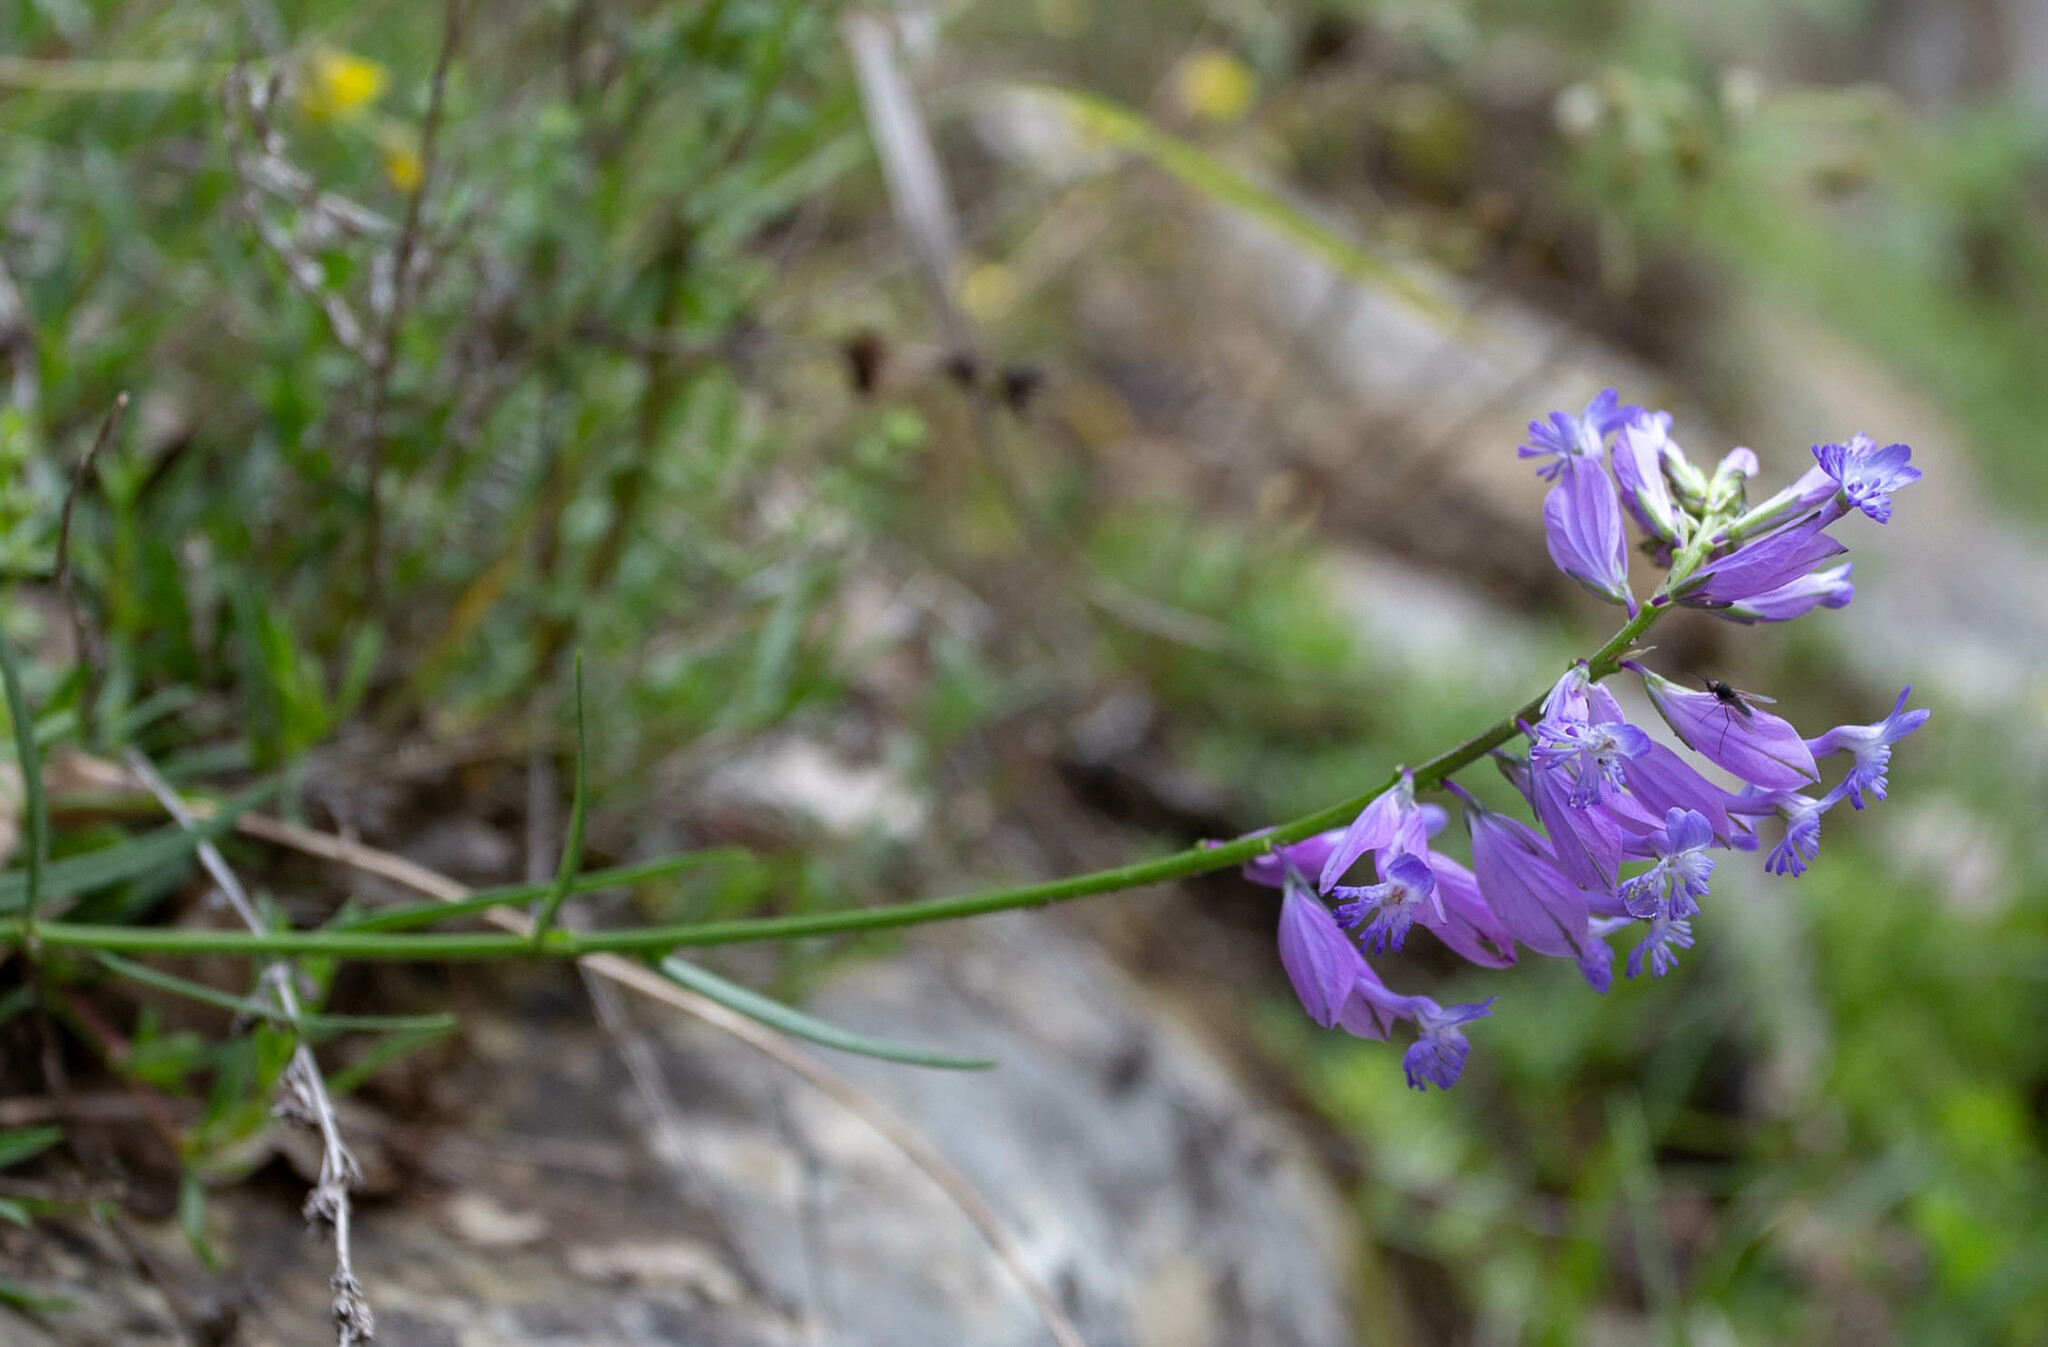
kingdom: Plantae
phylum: Tracheophyta
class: Magnoliopsida
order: Fabales
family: Polygalaceae
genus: Polygala
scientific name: Polygala major
